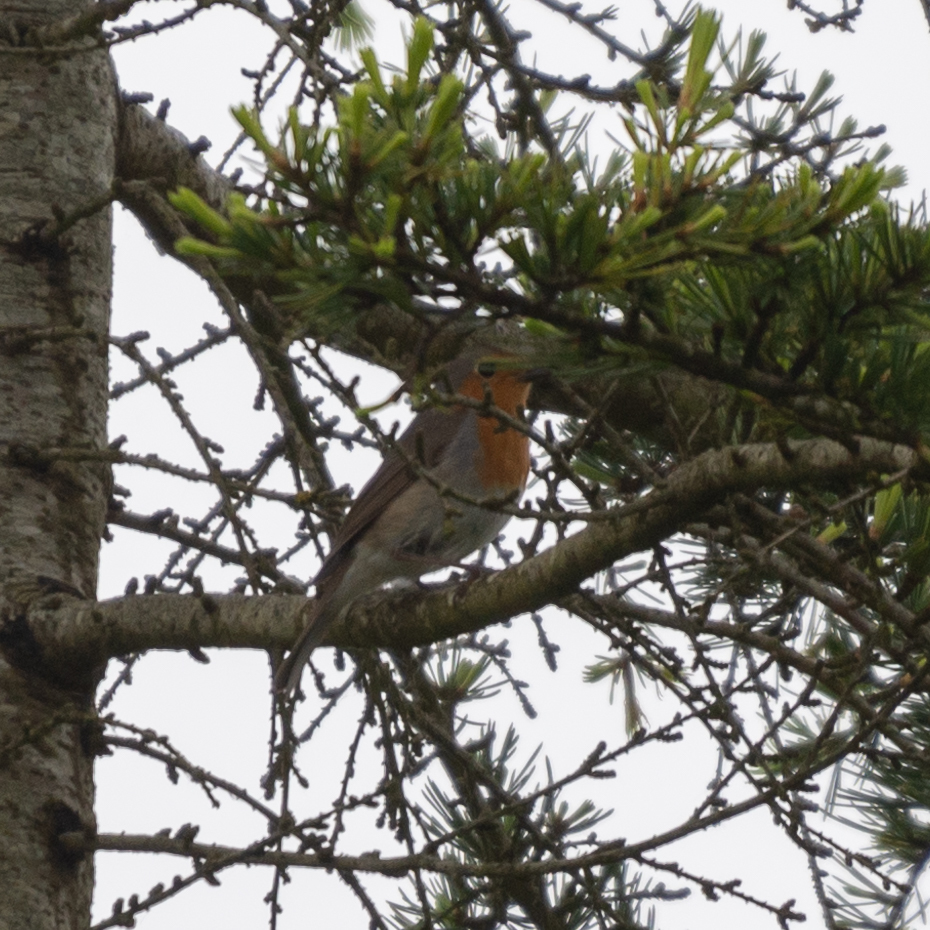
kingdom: Animalia
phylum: Chordata
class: Aves
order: Passeriformes
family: Muscicapidae
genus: Erithacus
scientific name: Erithacus rubecula
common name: European robin
